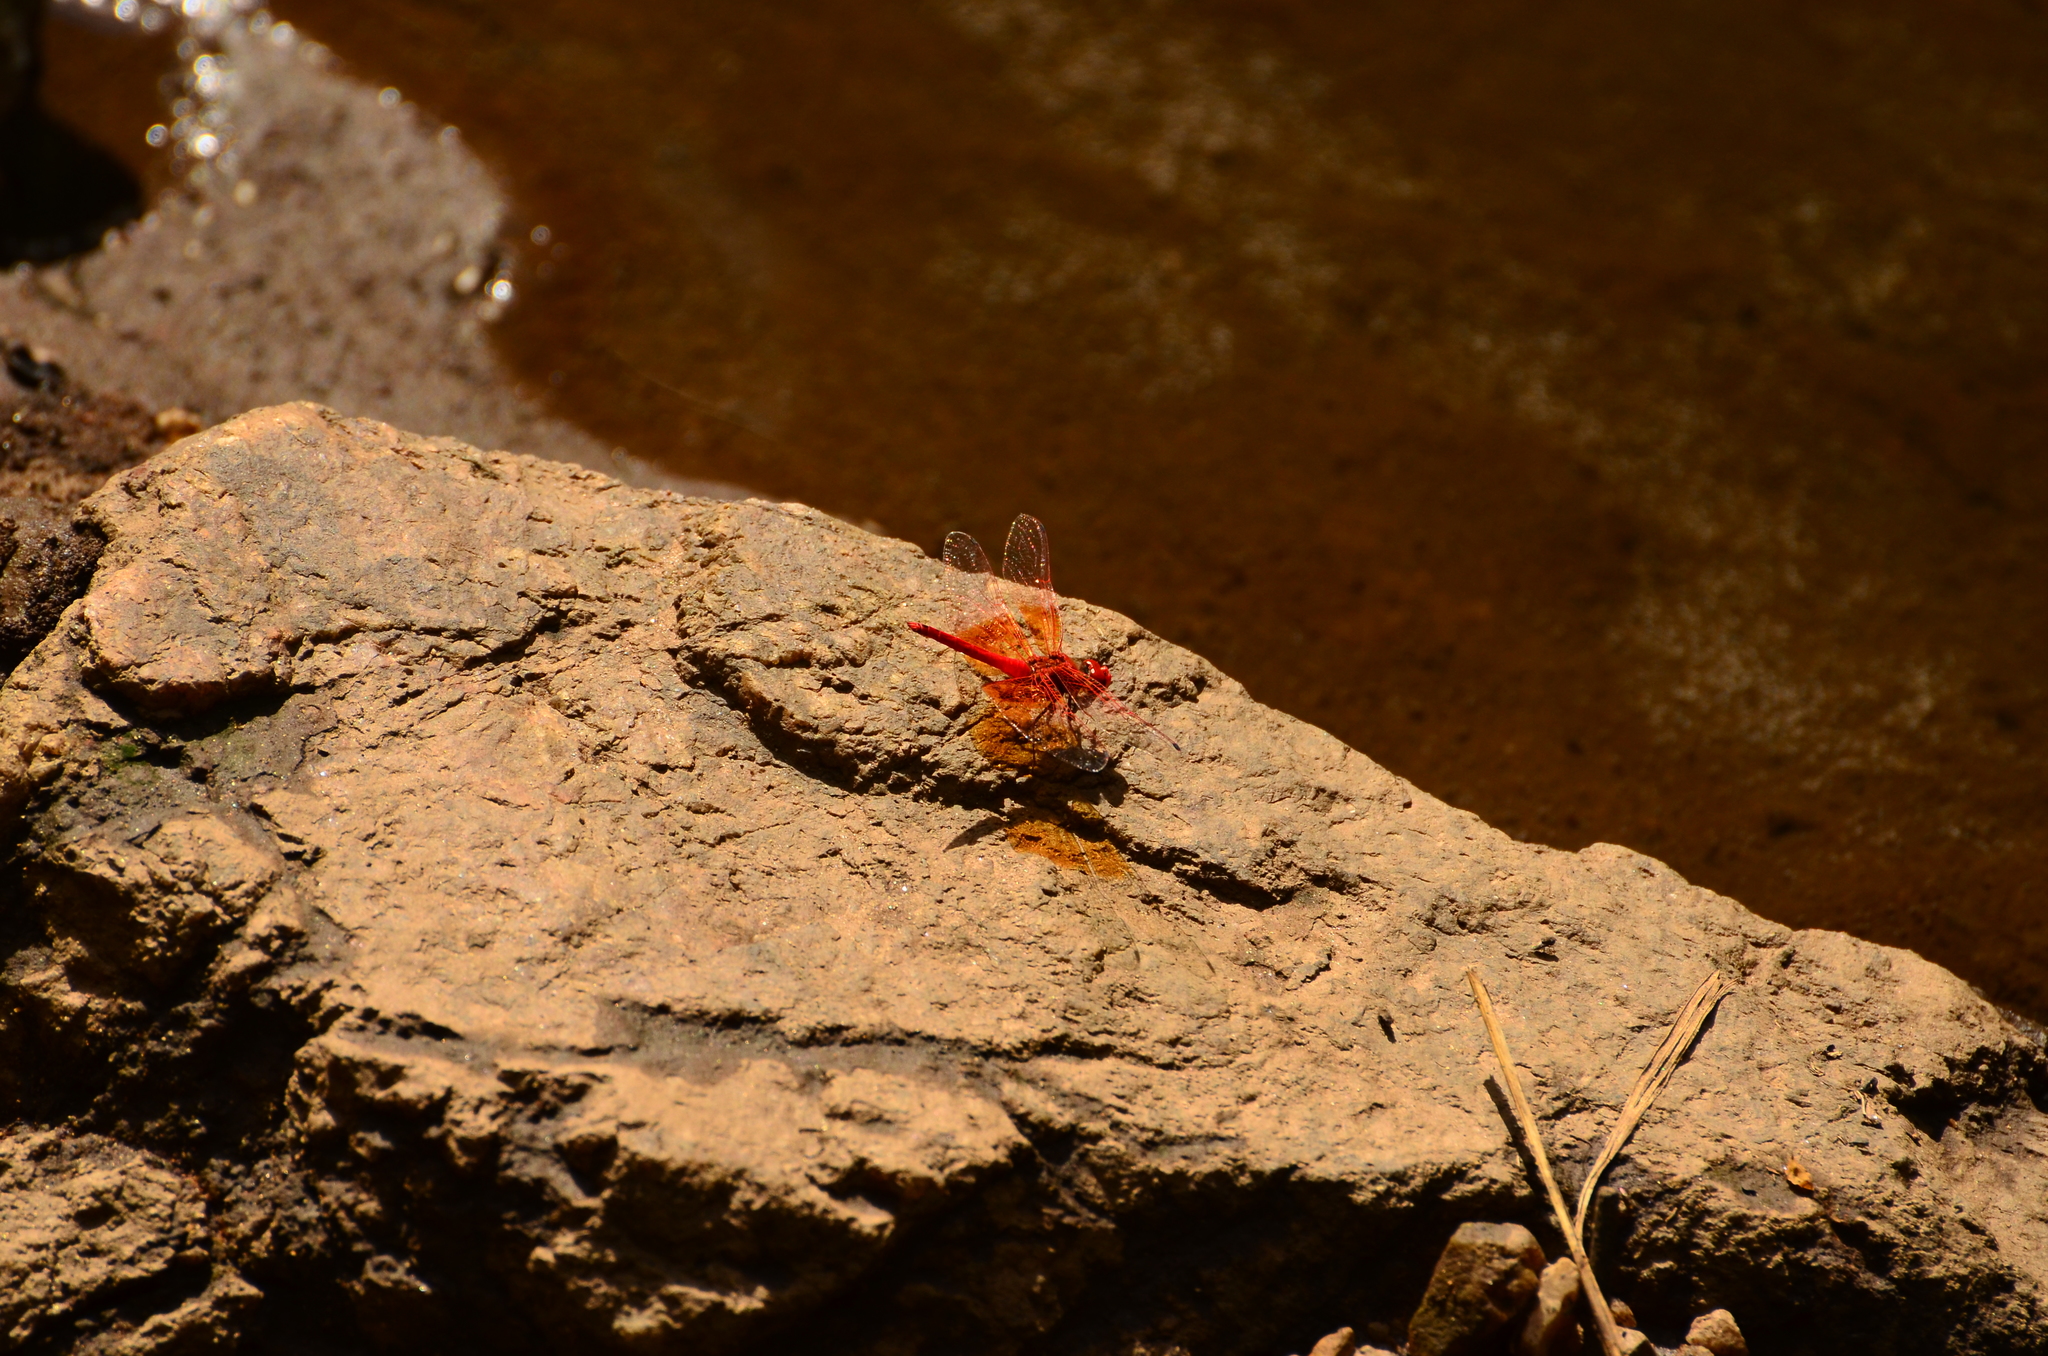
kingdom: Animalia
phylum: Arthropoda
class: Insecta
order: Odonata
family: Libellulidae
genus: Trithemis
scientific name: Trithemis kirbyi
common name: Kirby's dropwing
